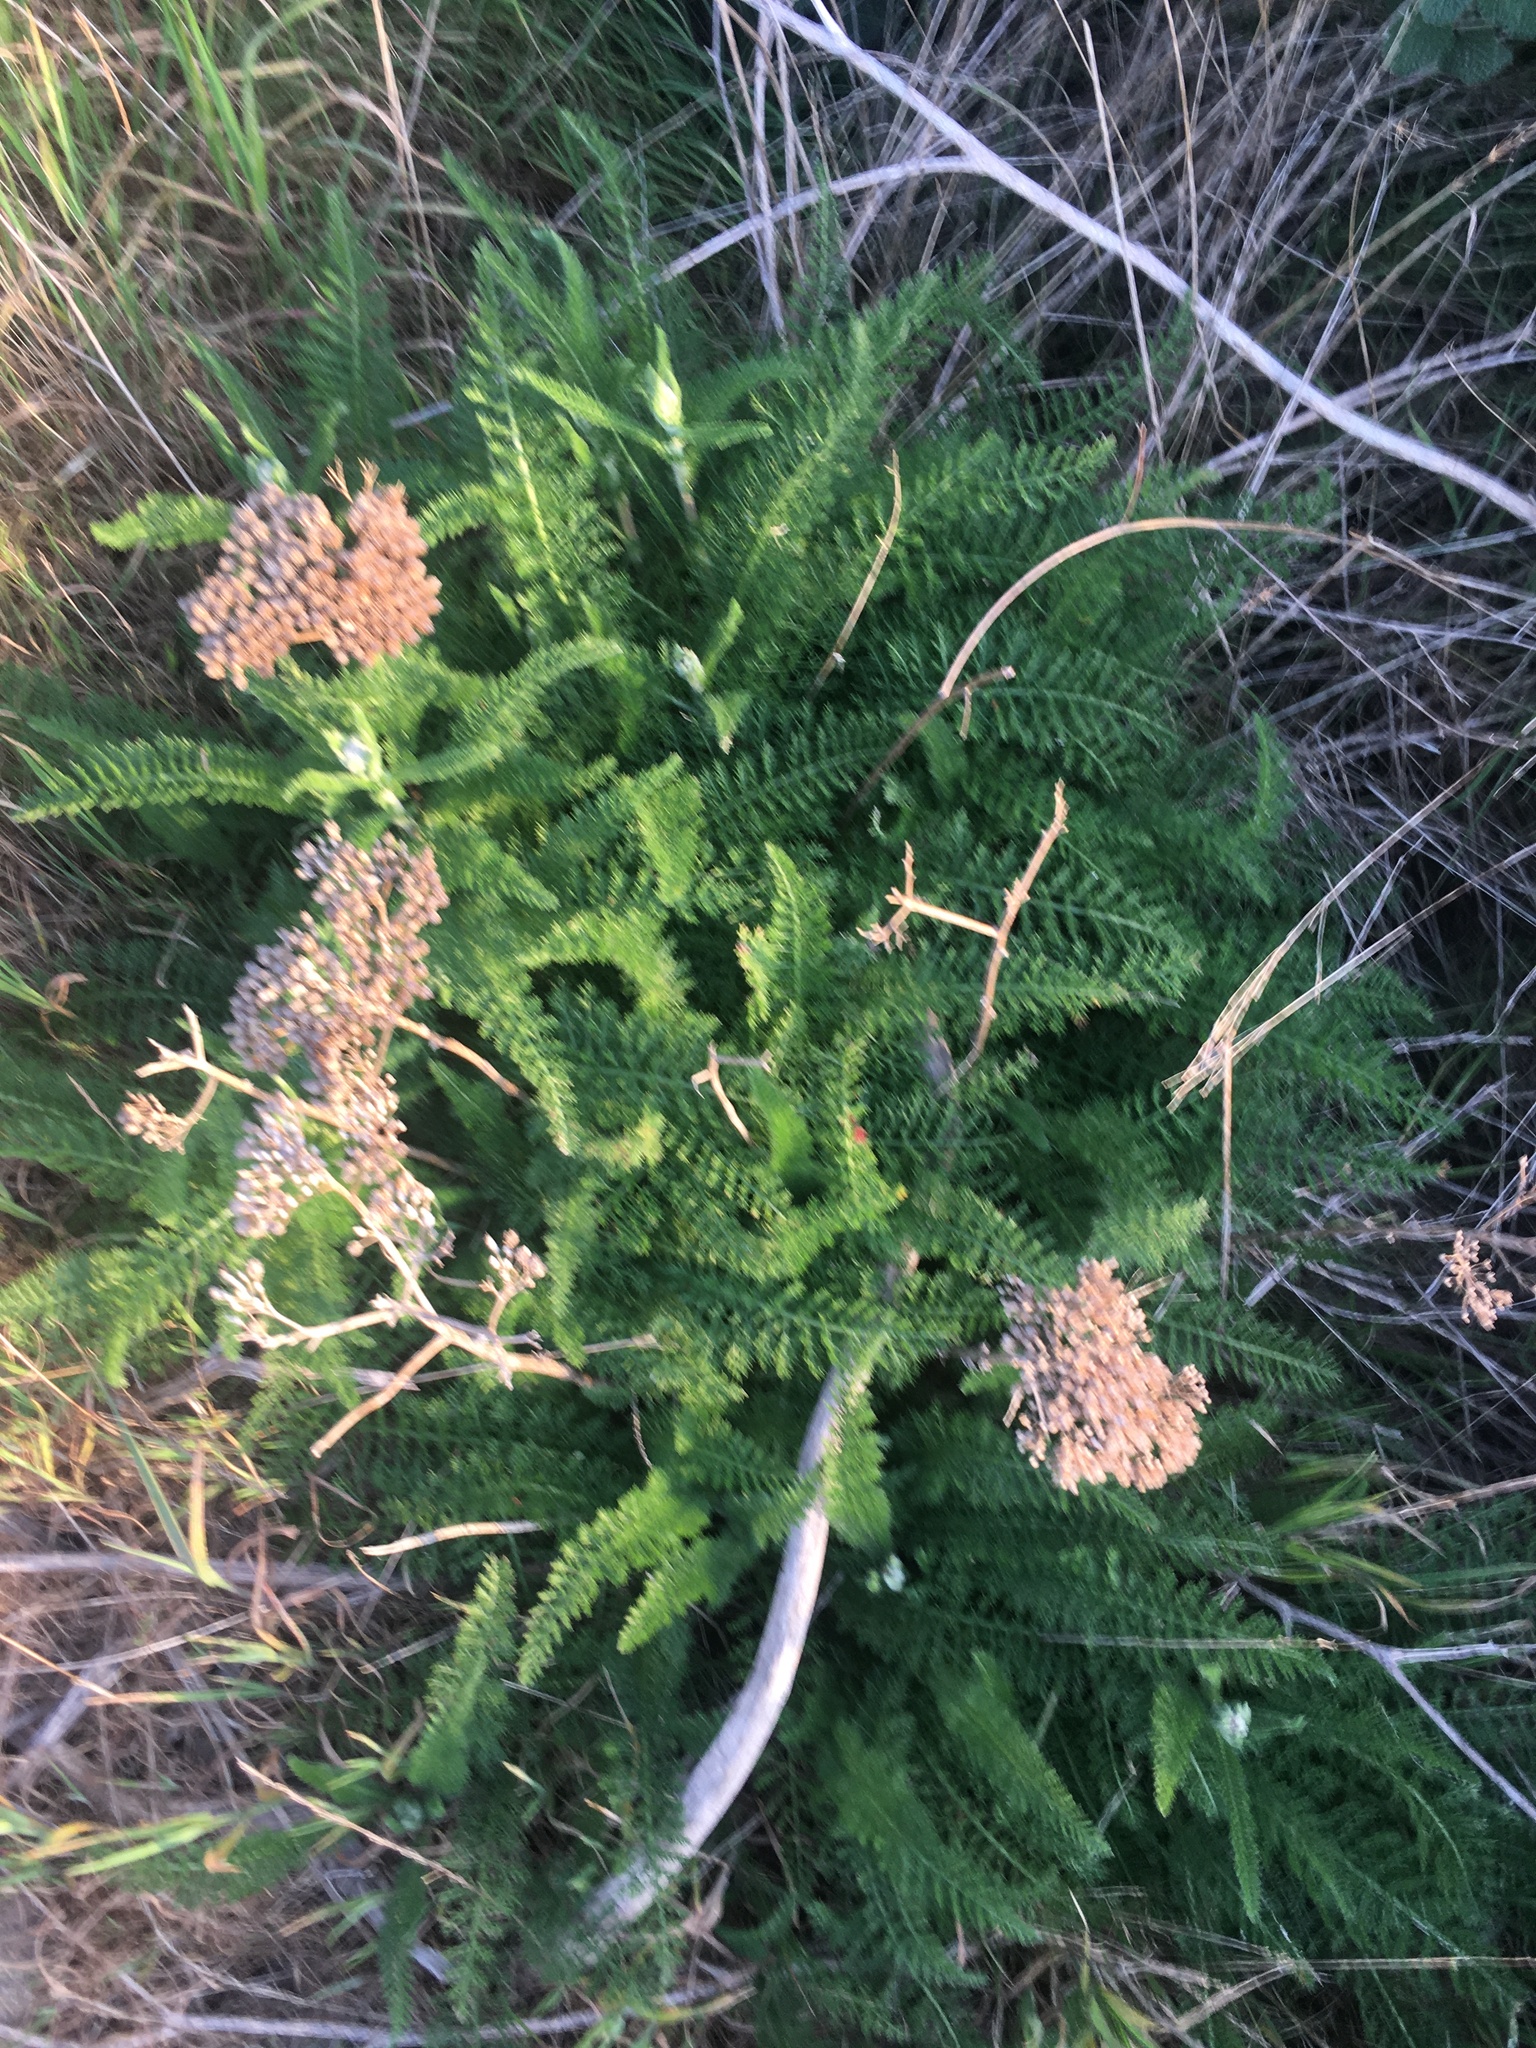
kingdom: Plantae
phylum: Tracheophyta
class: Magnoliopsida
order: Asterales
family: Asteraceae
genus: Achillea
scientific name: Achillea millefolium
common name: Yarrow
